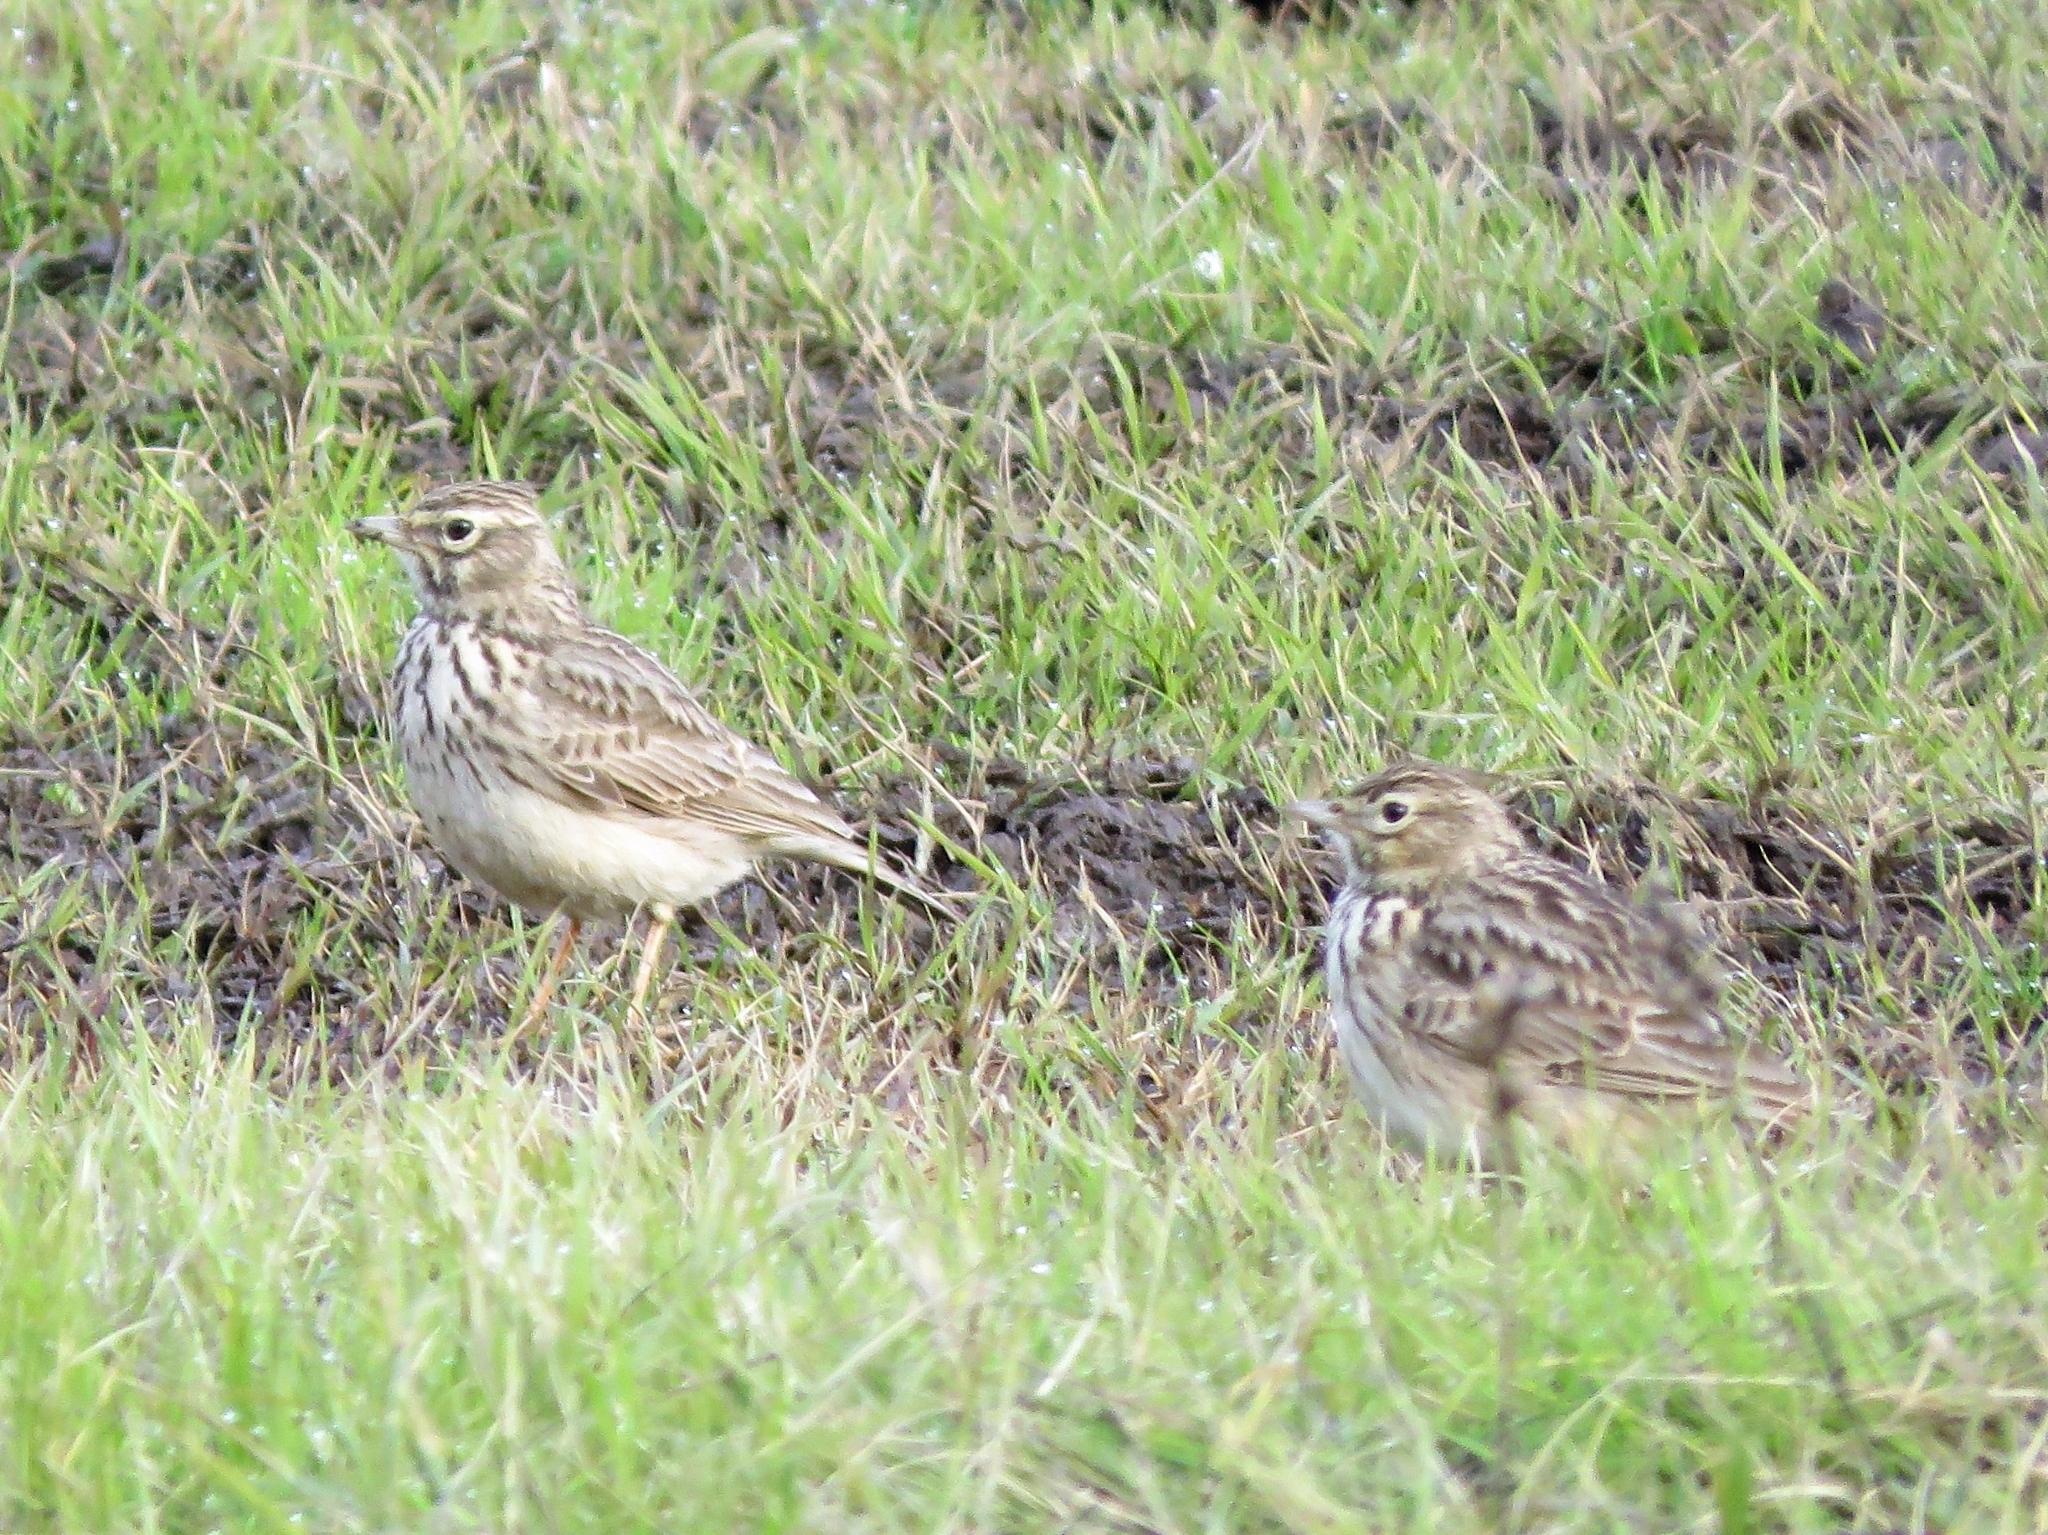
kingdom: Animalia
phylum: Chordata
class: Aves
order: Passeriformes
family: Alaudidae
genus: Alauda
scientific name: Alauda arvensis
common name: Eurasian skylark
